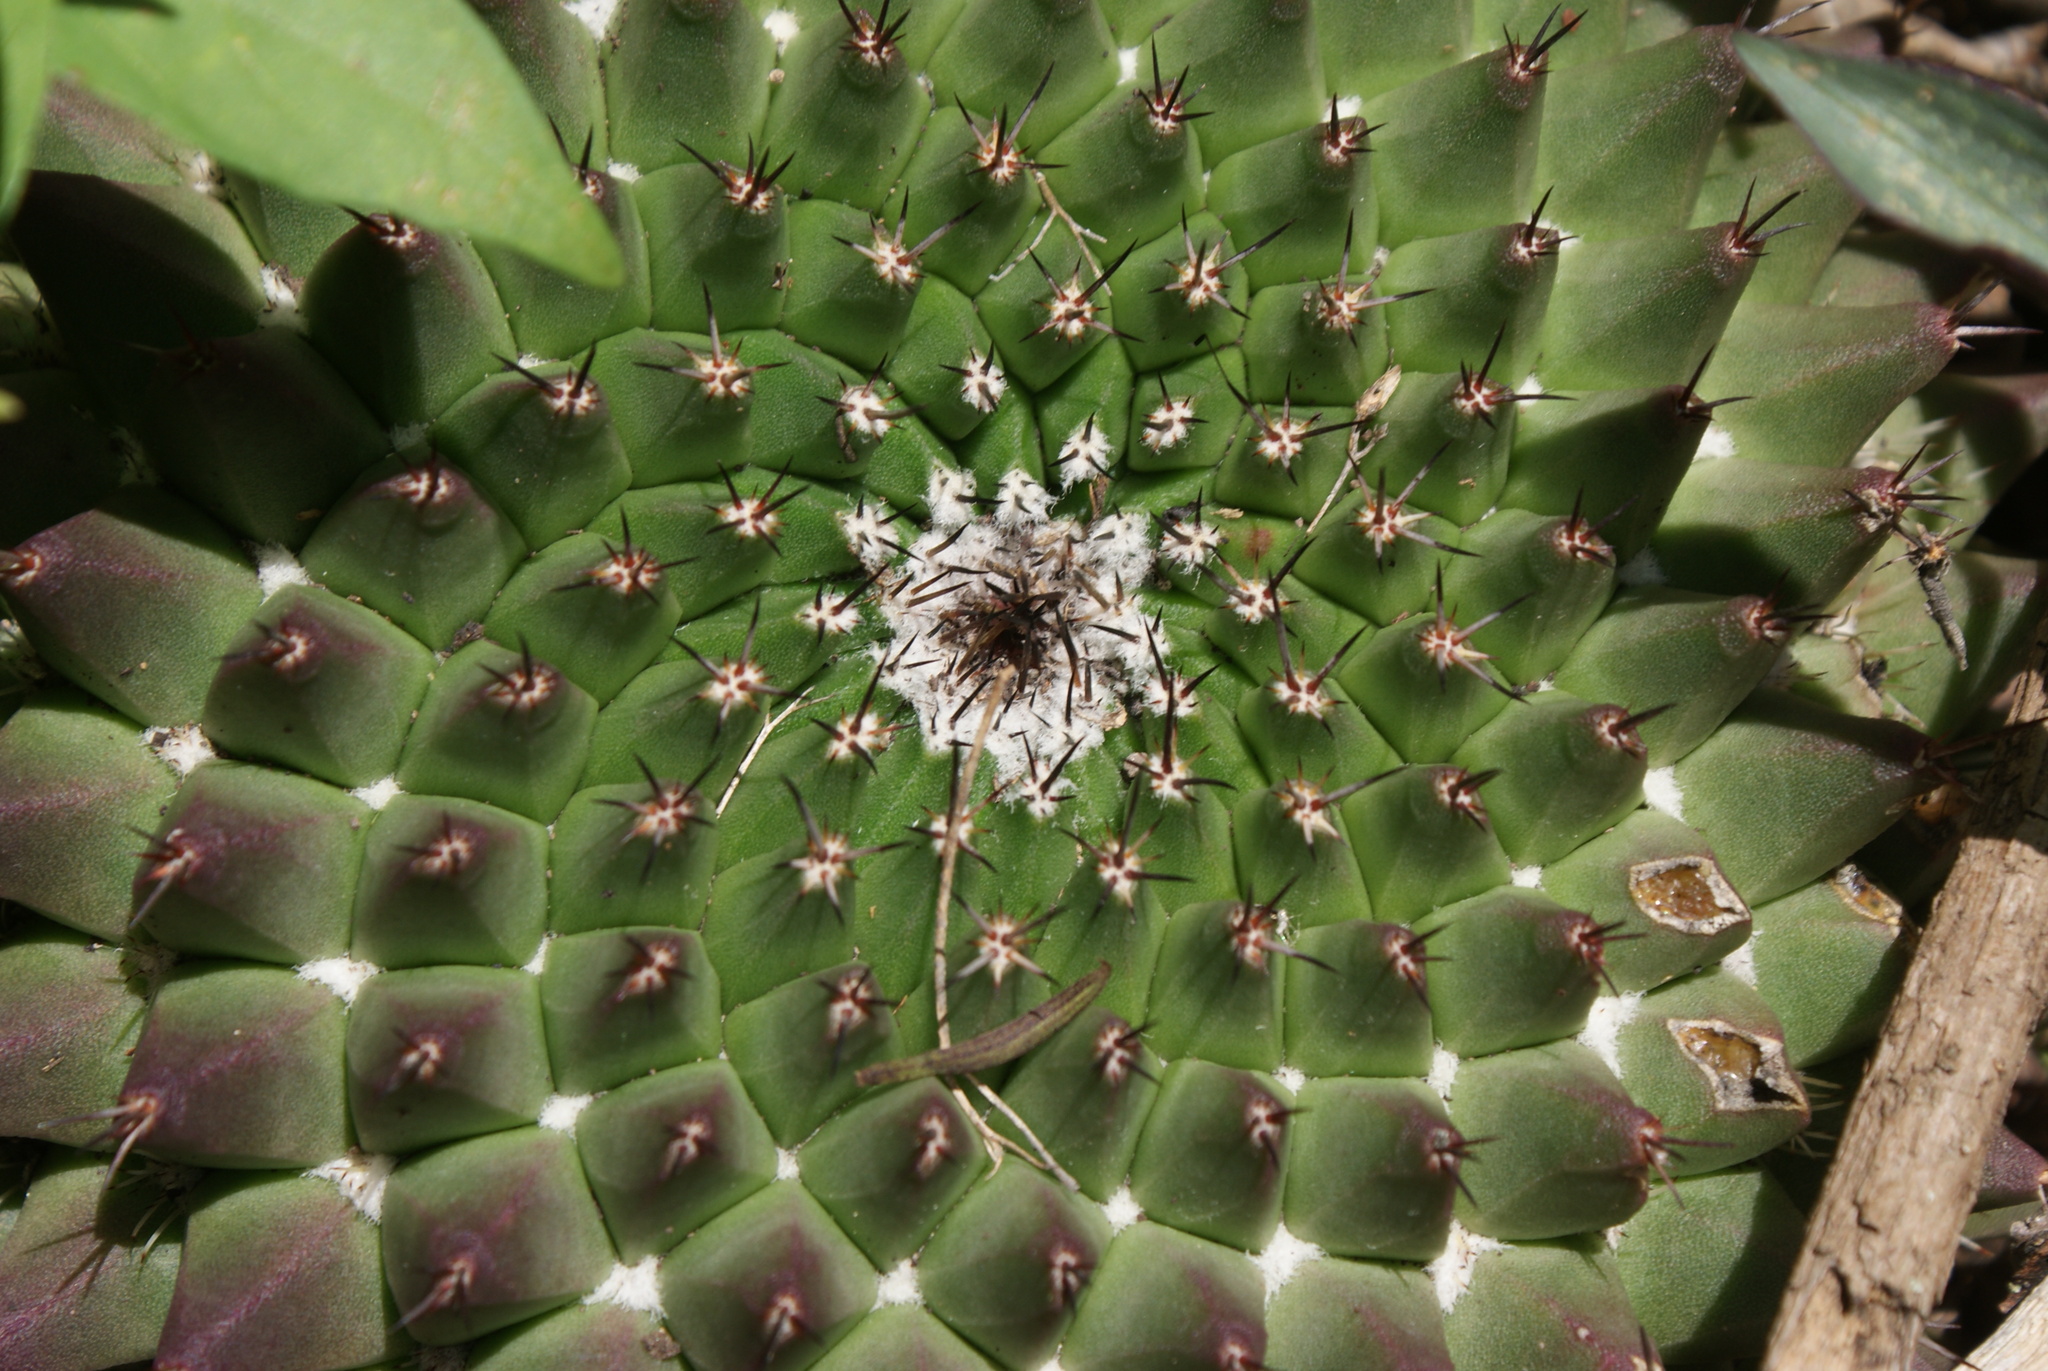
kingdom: Plantae
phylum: Tracheophyta
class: Magnoliopsida
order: Caryophyllales
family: Cactaceae
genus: Mammillaria
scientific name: Mammillaria mystax
